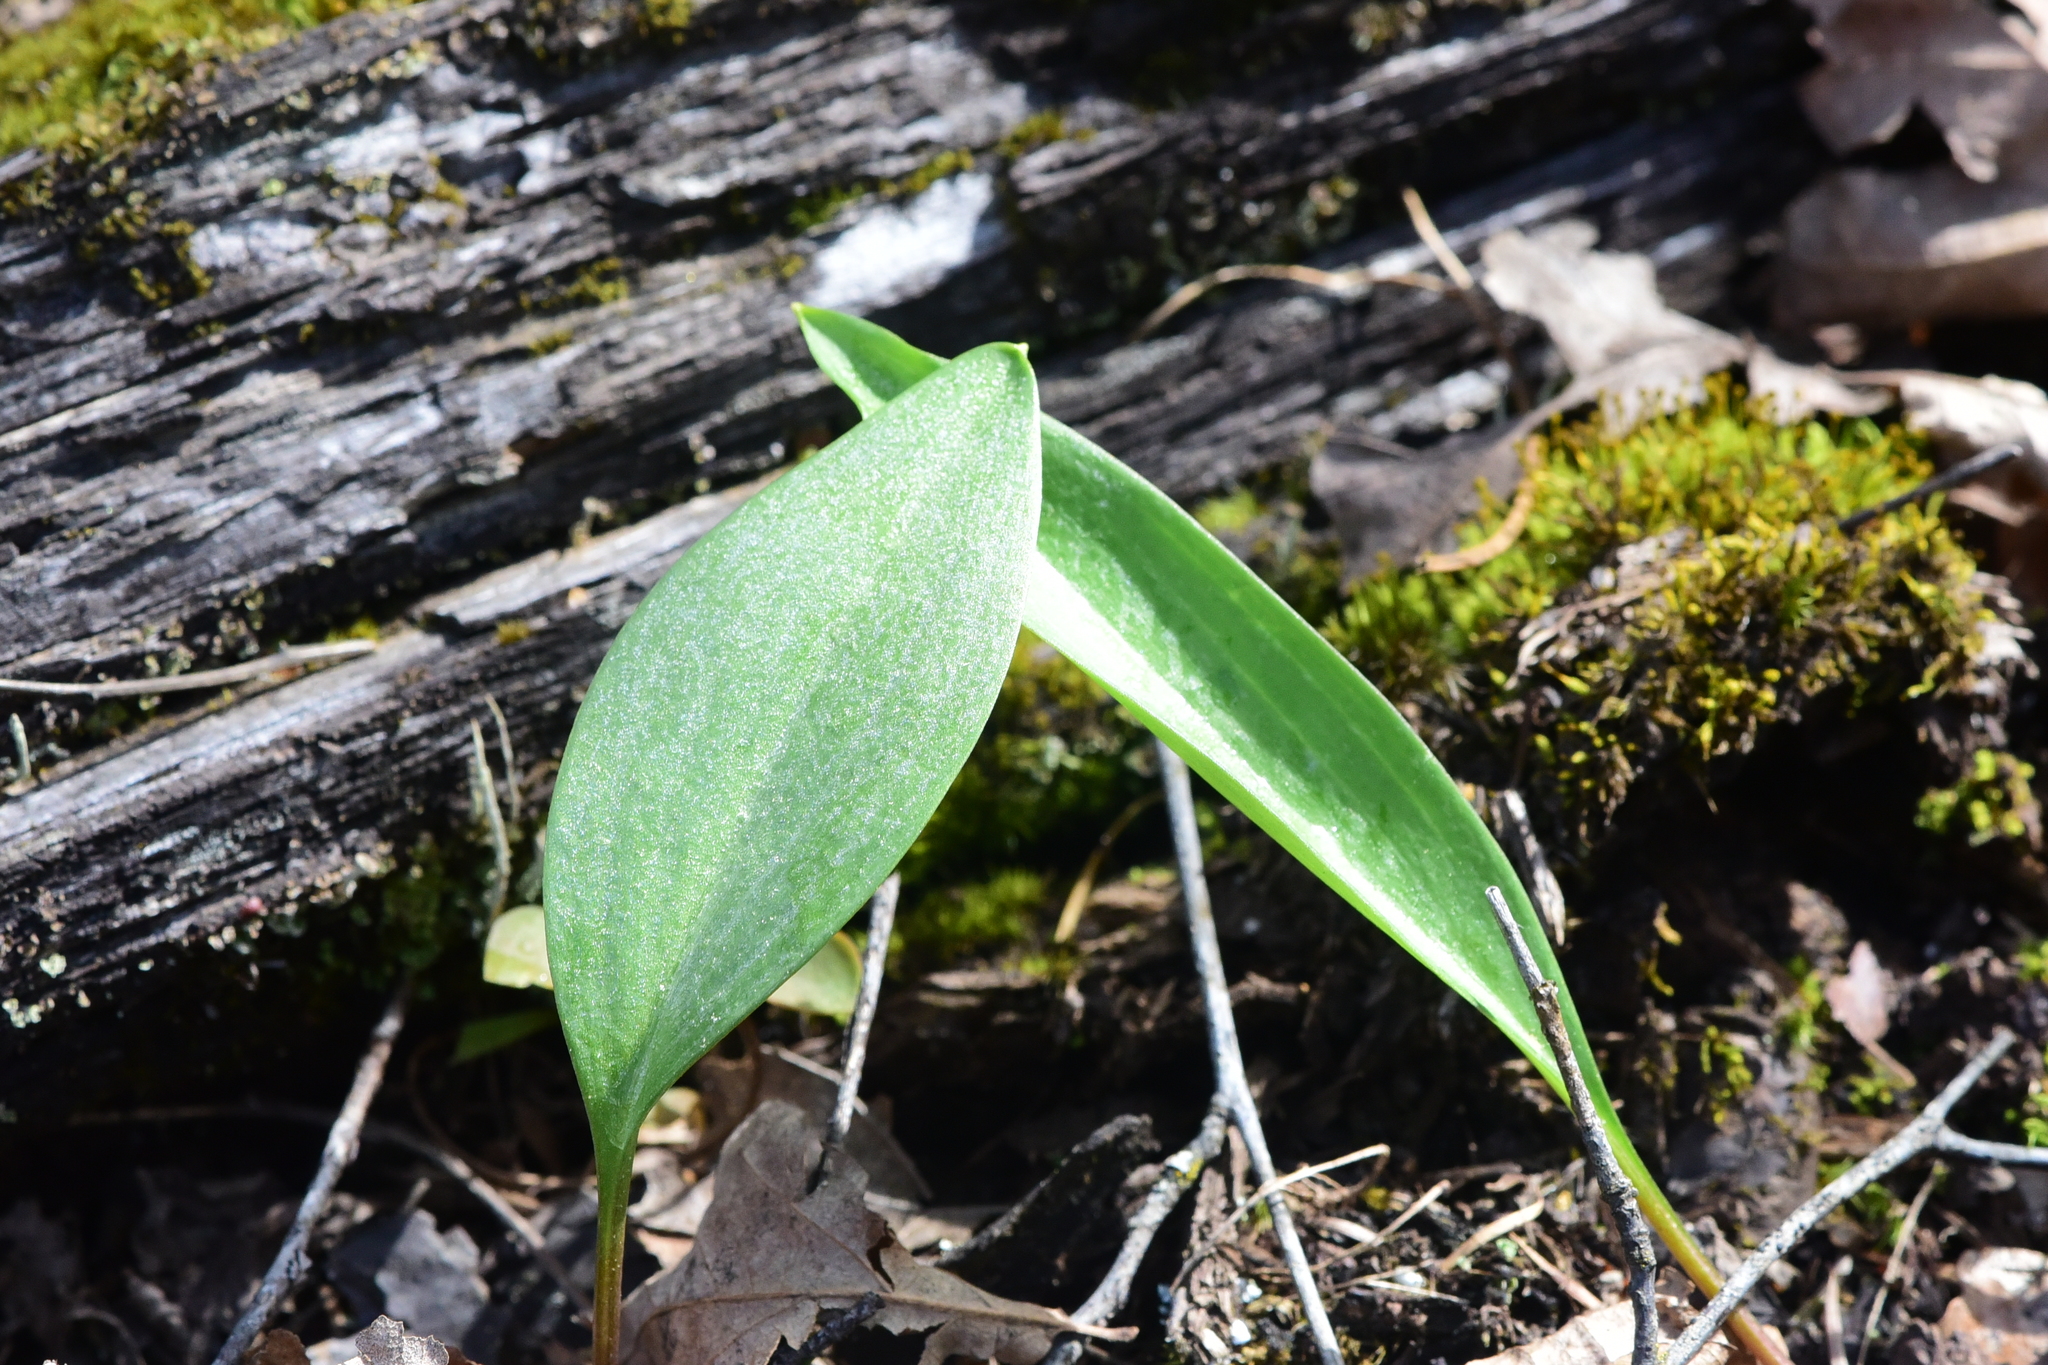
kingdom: Plantae
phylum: Tracheophyta
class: Liliopsida
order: Liliales
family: Liliaceae
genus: Fritillaria
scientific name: Fritillaria affinis
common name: Ojai fritillary
